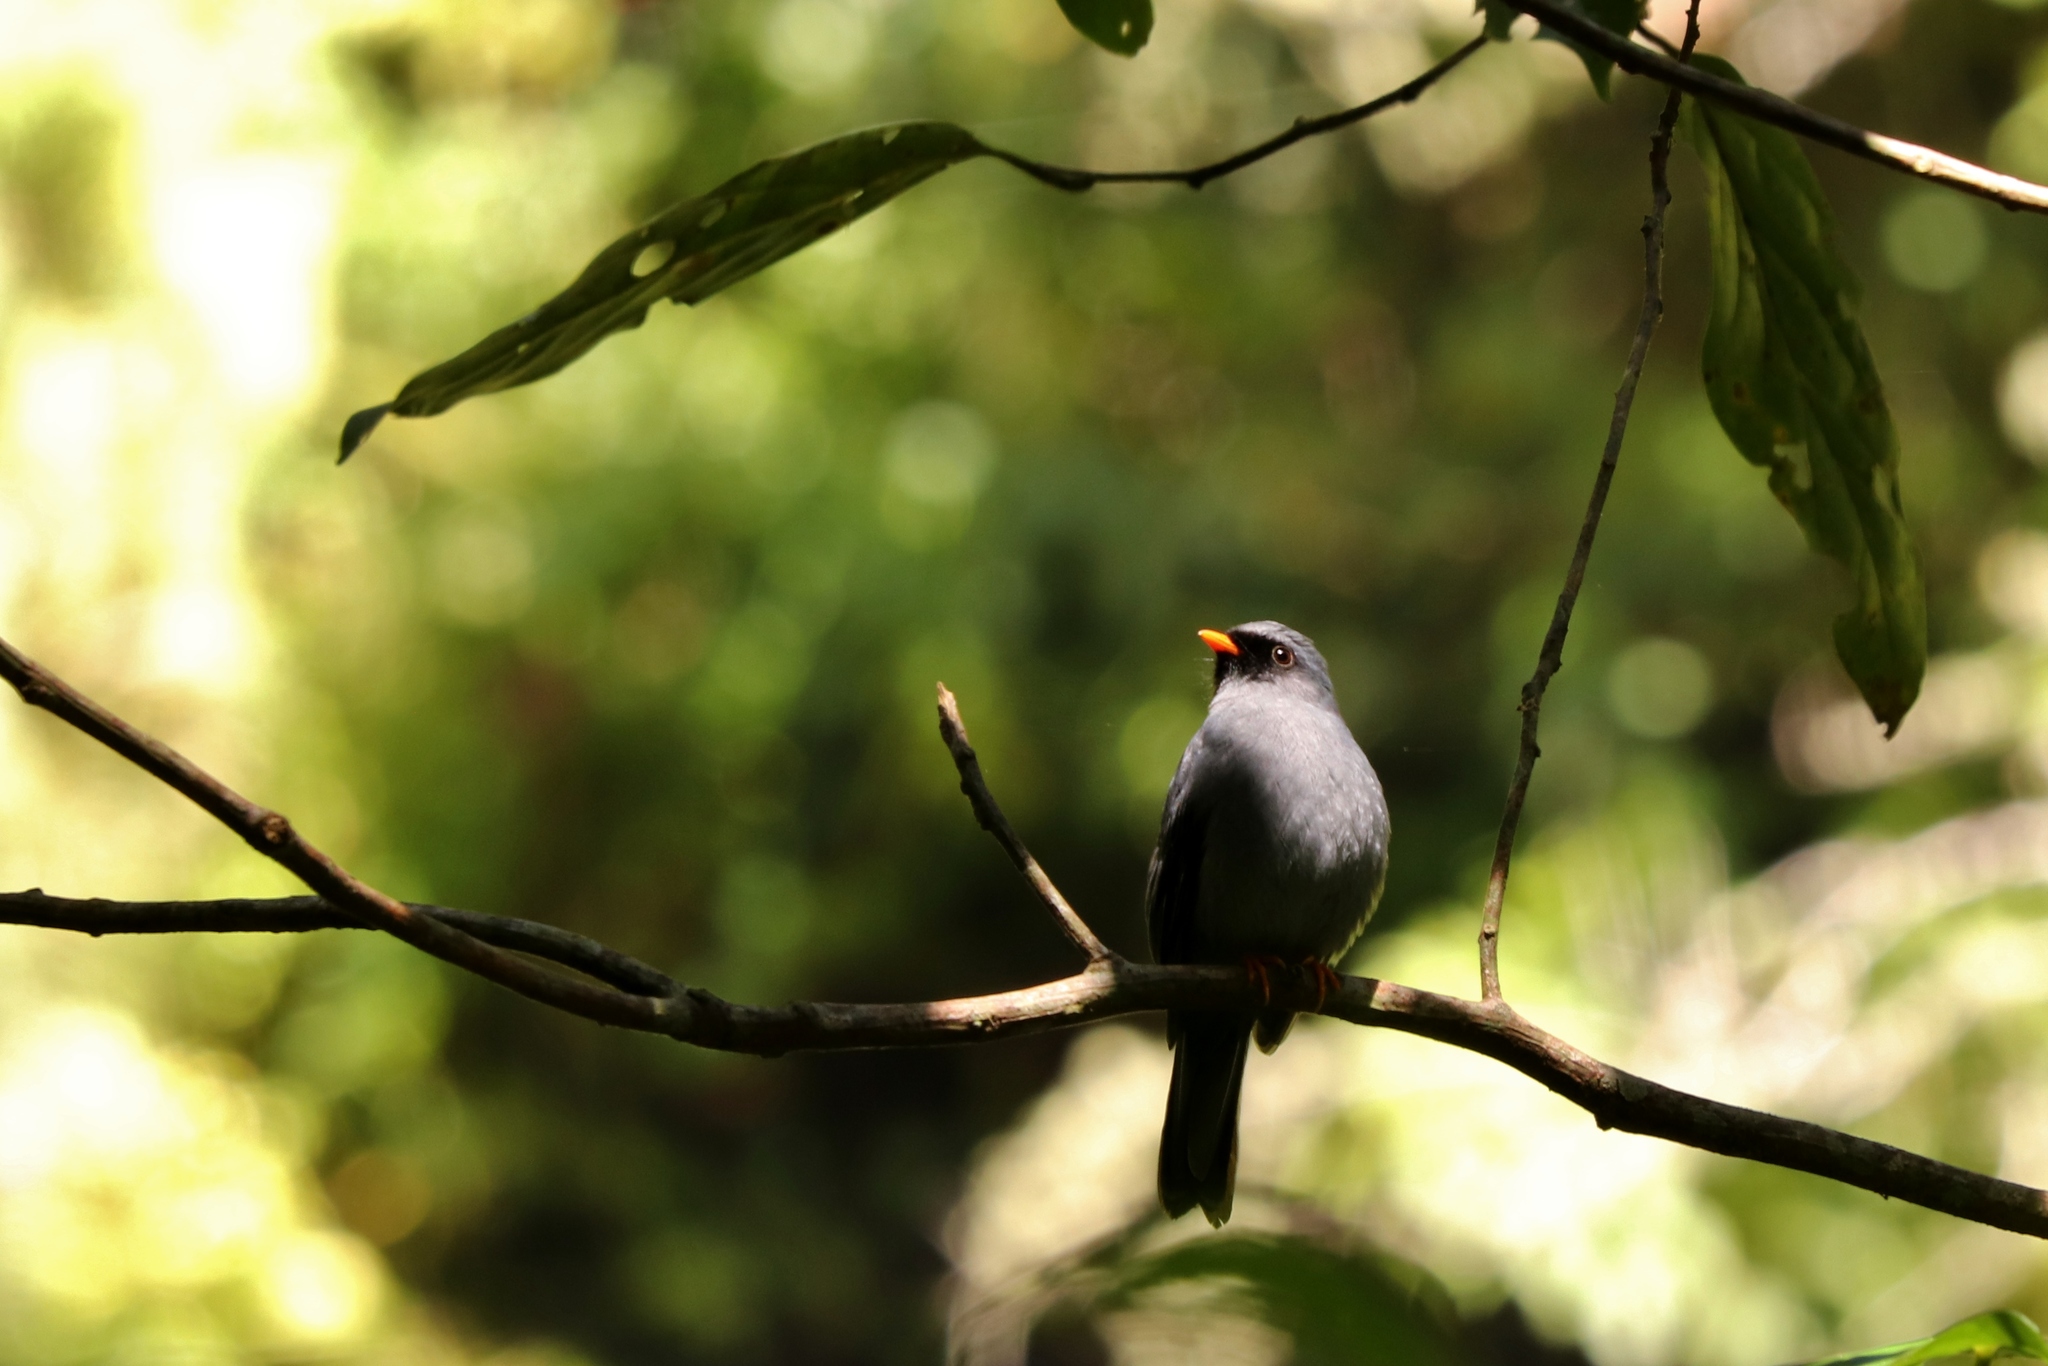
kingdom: Animalia
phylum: Chordata
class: Aves
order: Passeriformes
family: Turdidae
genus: Myadestes
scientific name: Myadestes melanops
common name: Black-faced solitaire
